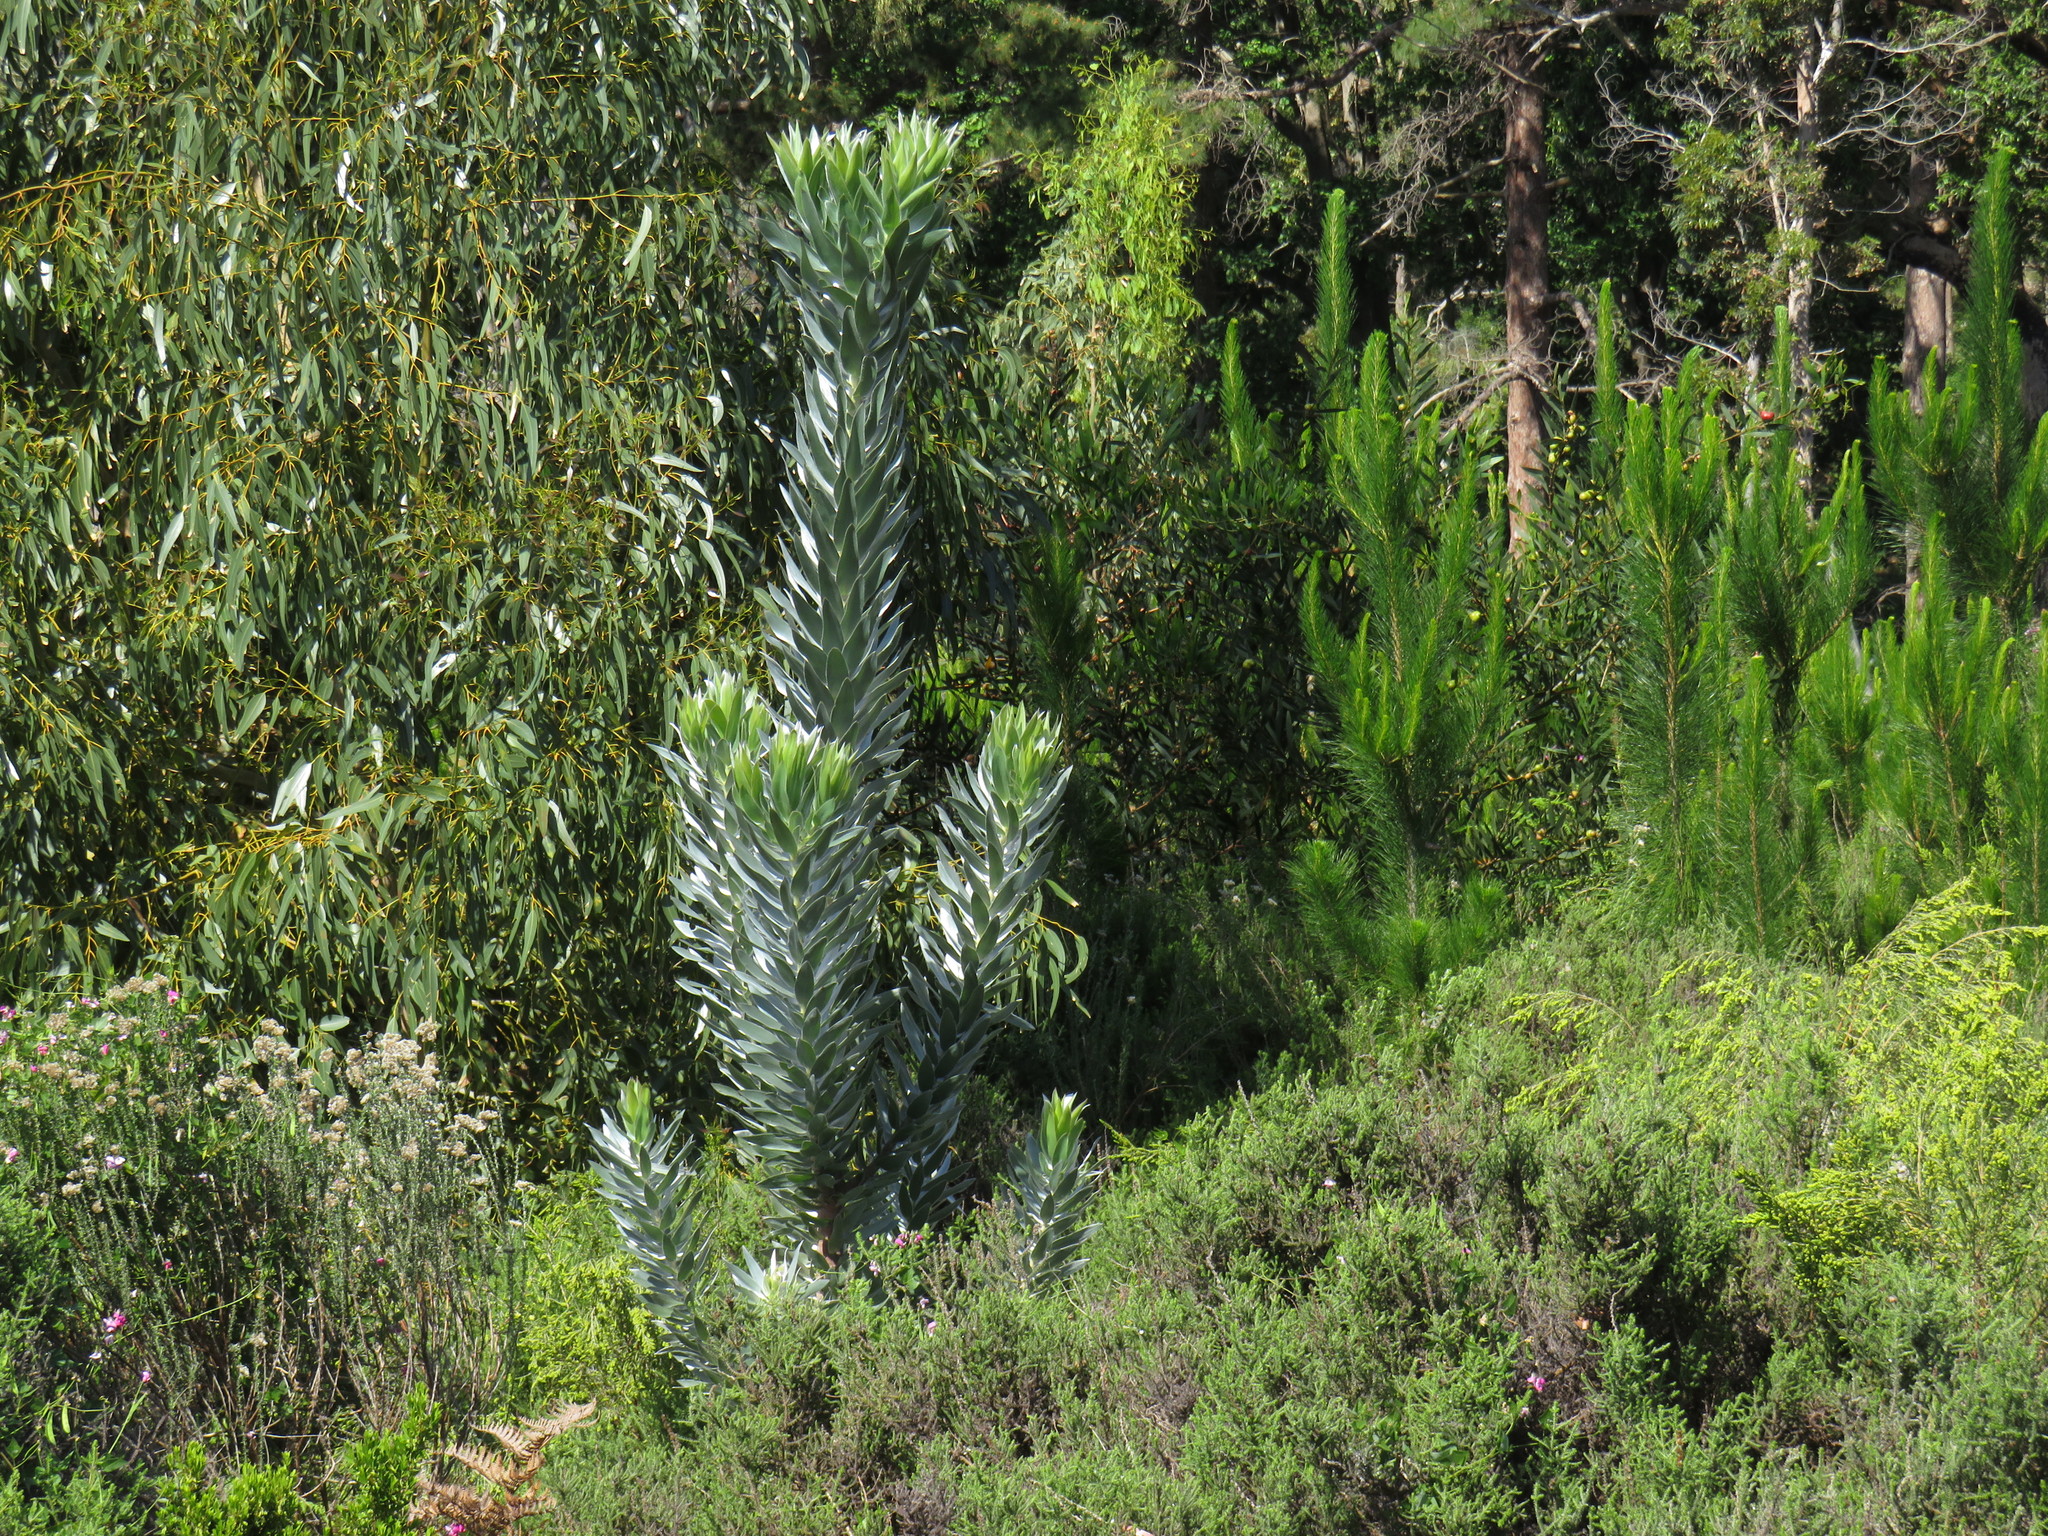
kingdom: Plantae
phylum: Tracheophyta
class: Magnoliopsida
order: Proteales
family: Proteaceae
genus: Leucadendron
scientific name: Leucadendron argenteum
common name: Cape silver tree
